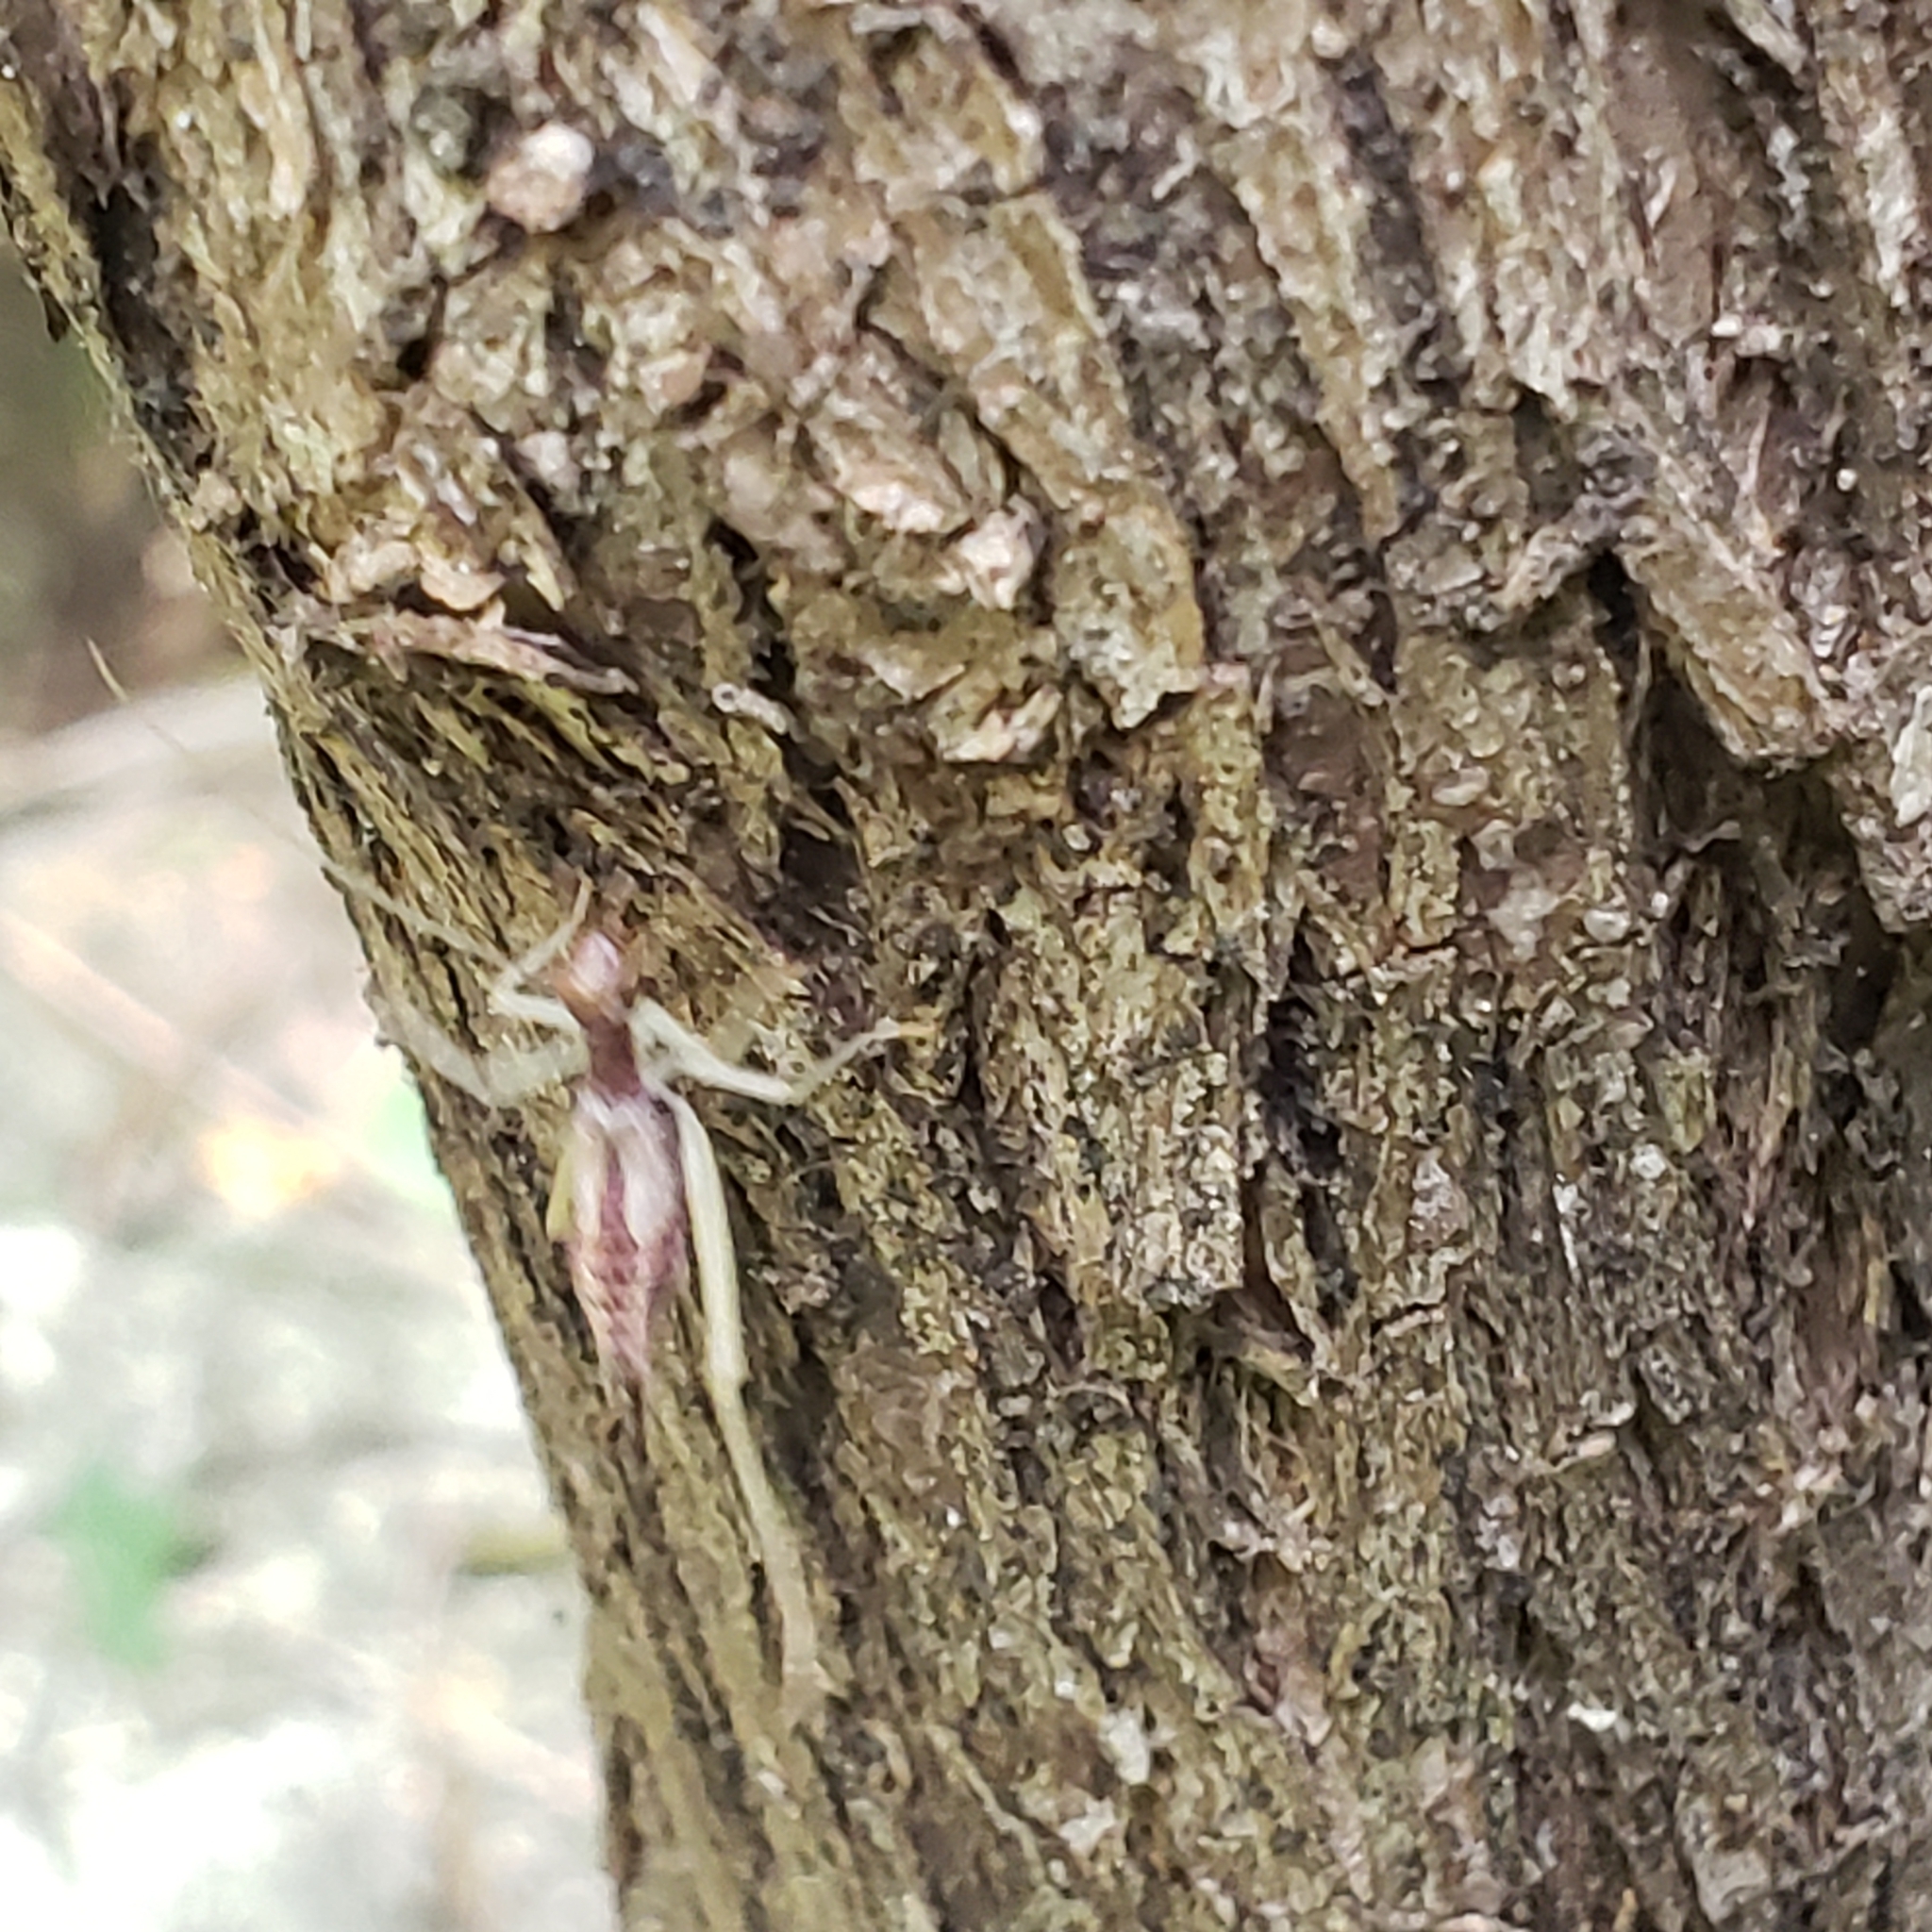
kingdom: Animalia
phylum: Arthropoda
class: Insecta
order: Orthoptera
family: Gryllidae
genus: Neoxabea
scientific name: Neoxabea bipunctata
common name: Two-spotted tree cricket
